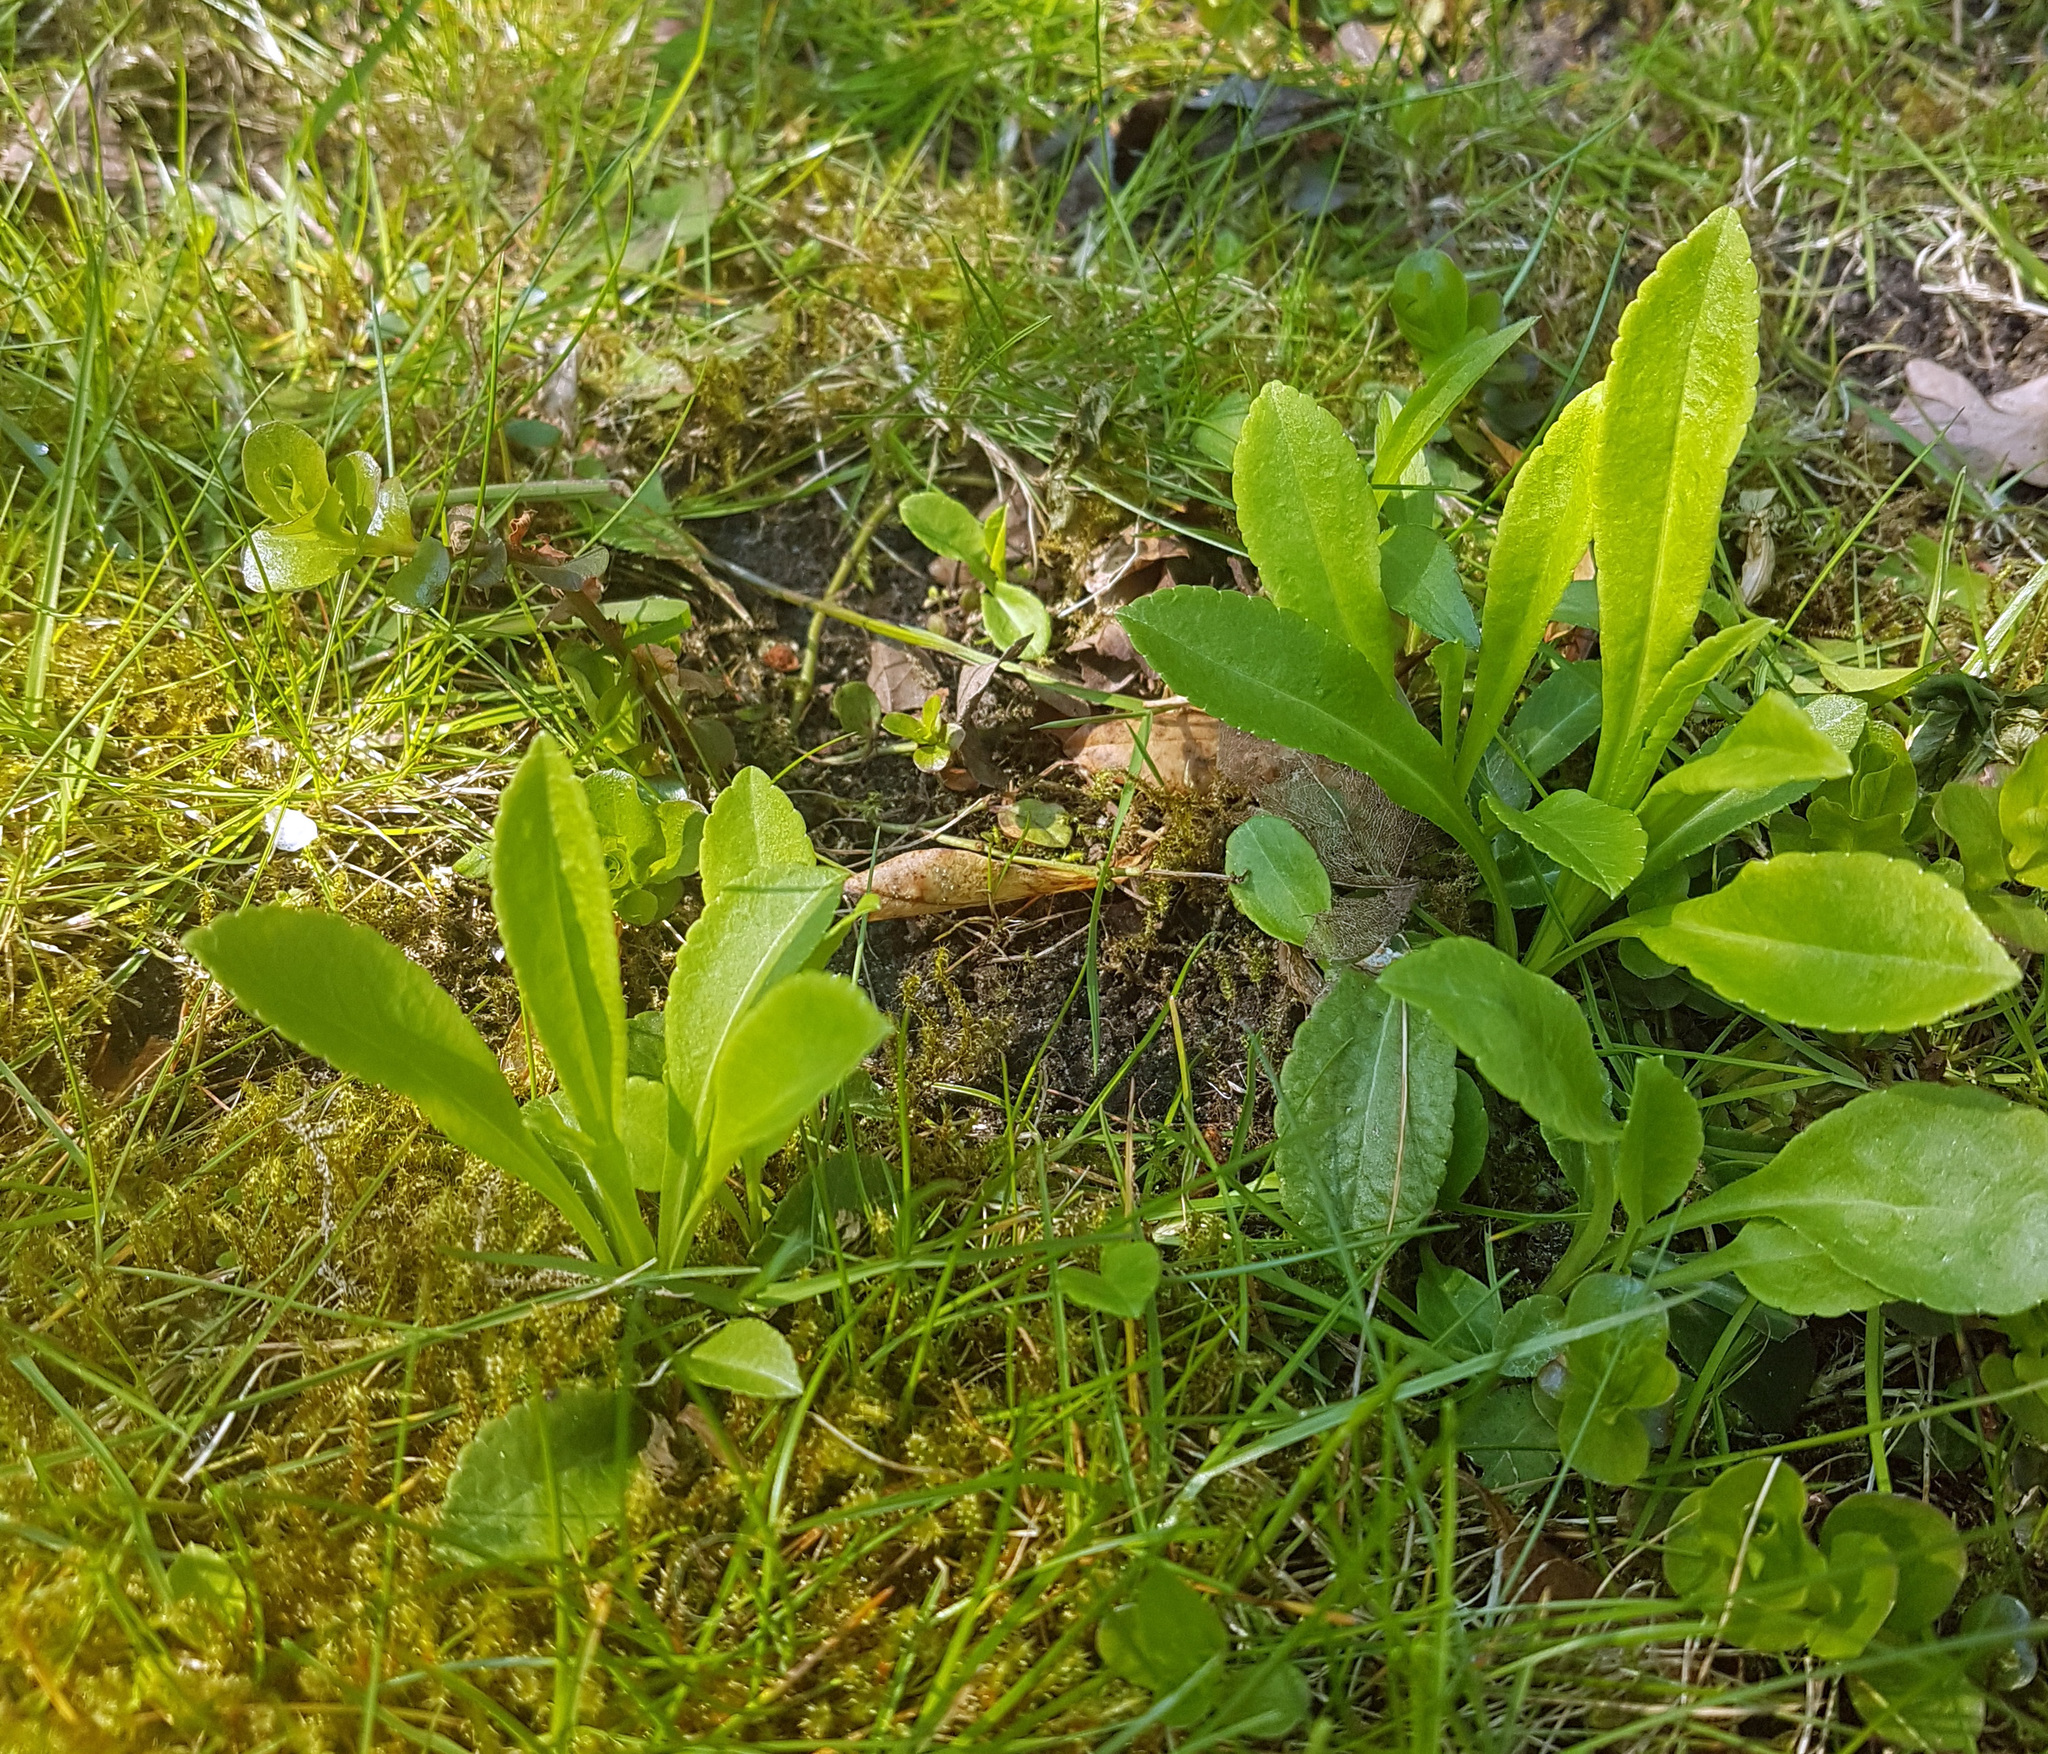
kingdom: Plantae
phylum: Tracheophyta
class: Magnoliopsida
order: Asterales
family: Campanulaceae
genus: Campanula
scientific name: Campanula persicifolia
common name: Peach-leaved bellflower
